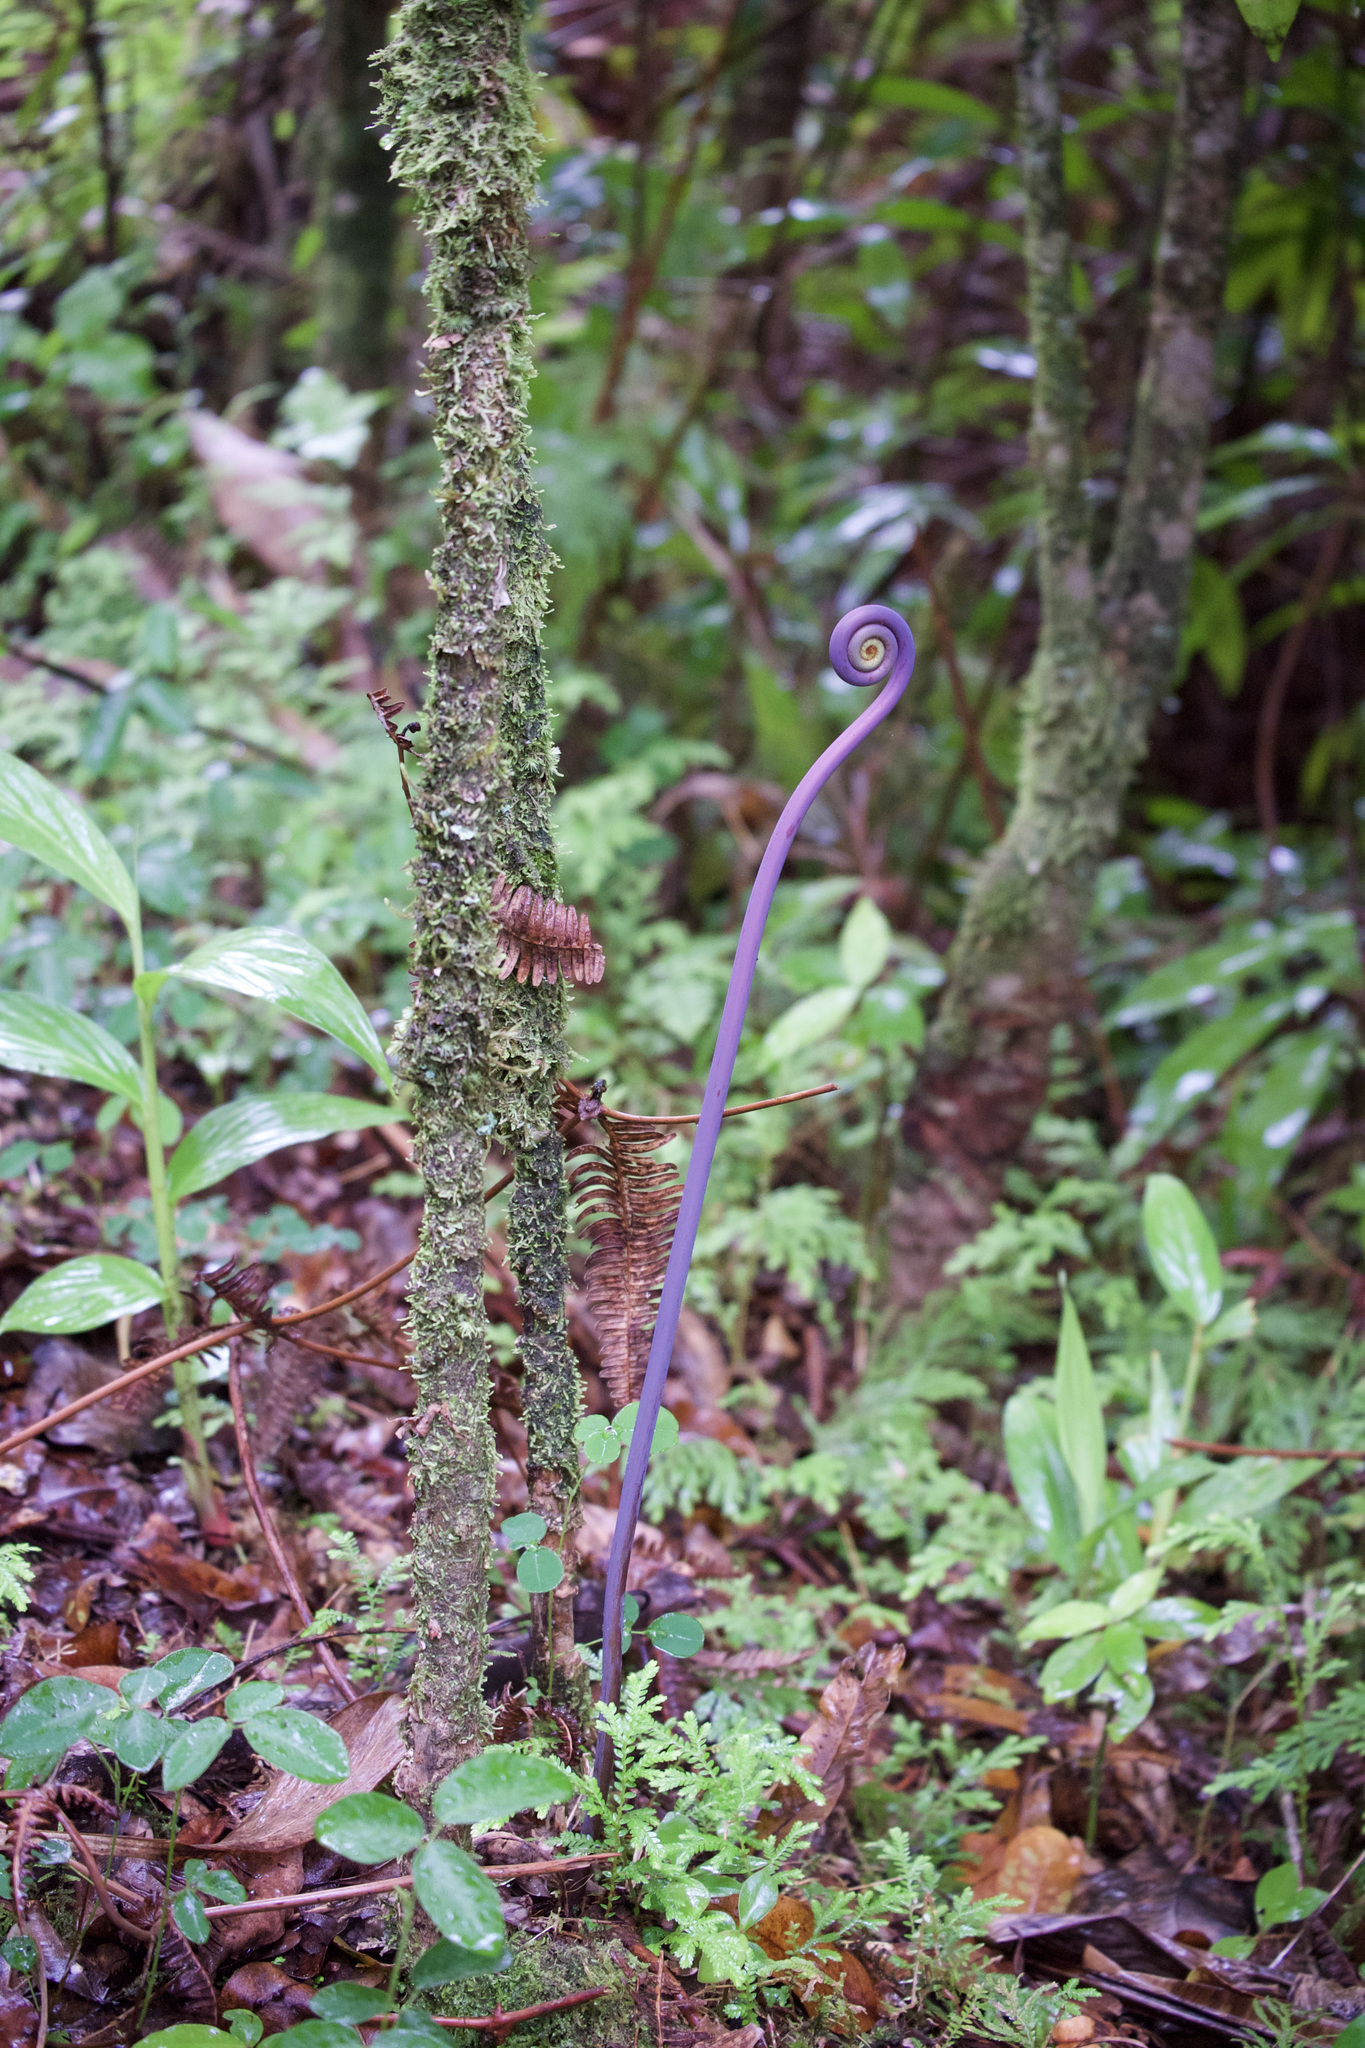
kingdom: Plantae
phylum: Tracheophyta
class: Polypodiopsida
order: Gleicheniales
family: Gleicheniaceae
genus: Dicranopteris
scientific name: Dicranopteris linearis
